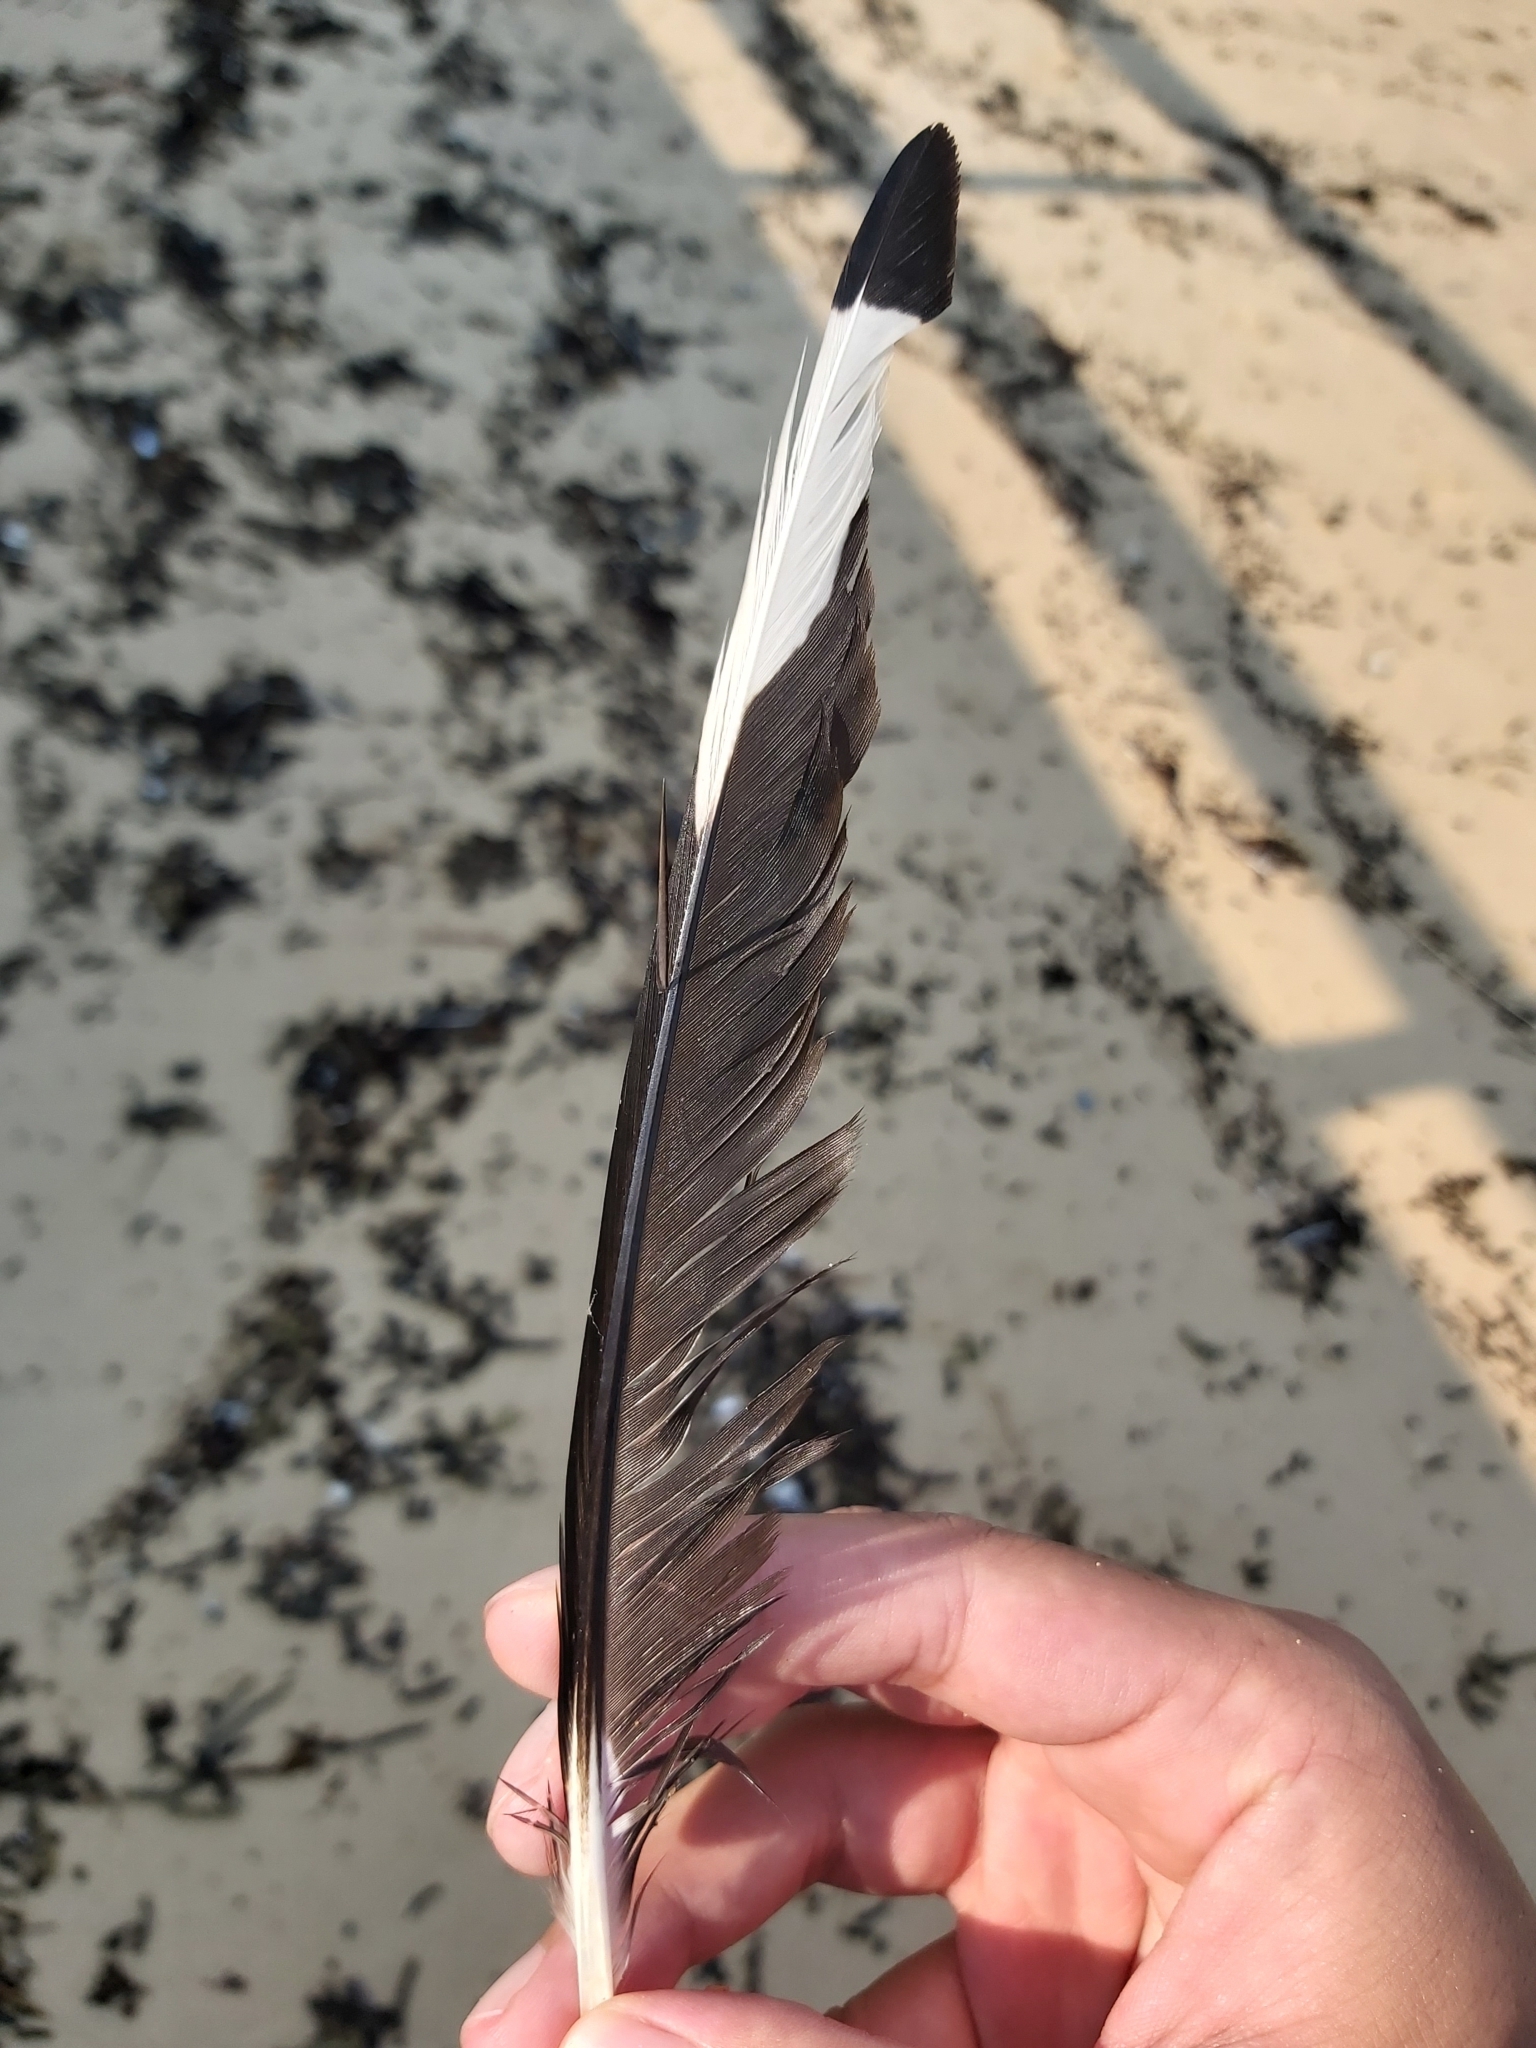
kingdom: Animalia
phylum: Chordata
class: Aves
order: Charadriiformes
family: Laridae
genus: Chroicocephalus
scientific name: Chroicocephalus novaehollandiae
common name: Silver gull
